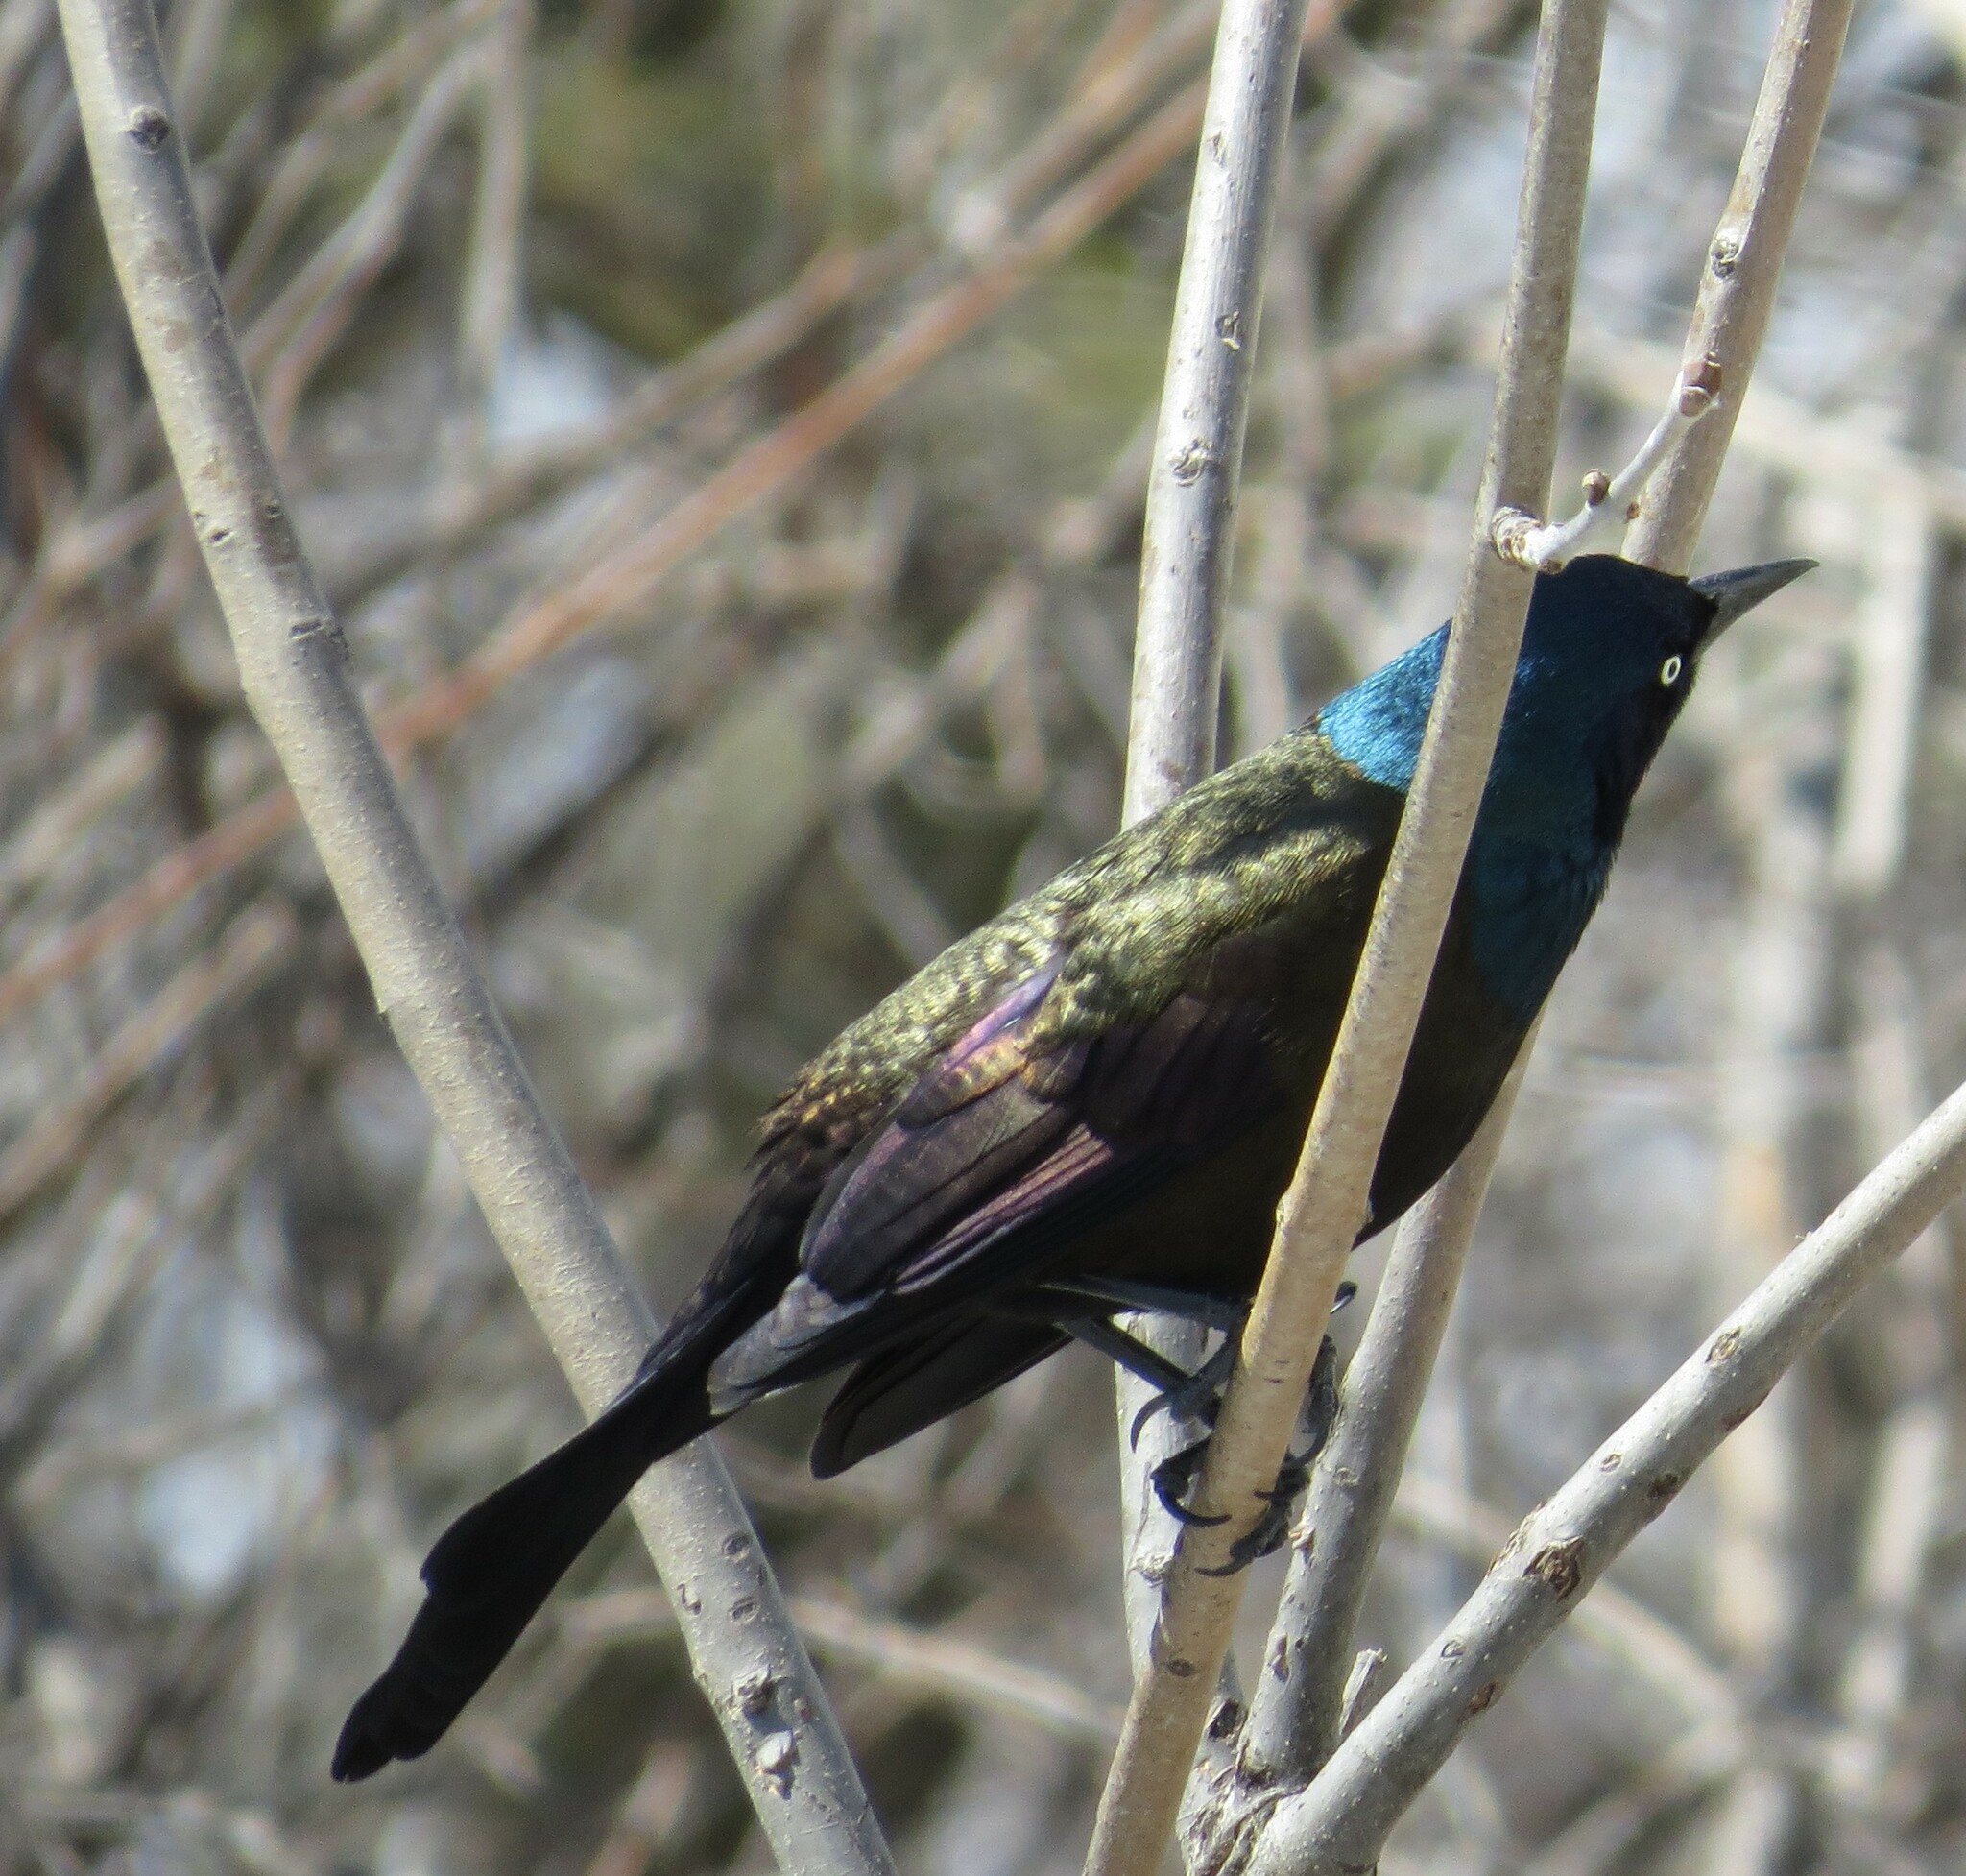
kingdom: Animalia
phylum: Chordata
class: Aves
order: Passeriformes
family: Icteridae
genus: Quiscalus
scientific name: Quiscalus quiscula
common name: Common grackle
